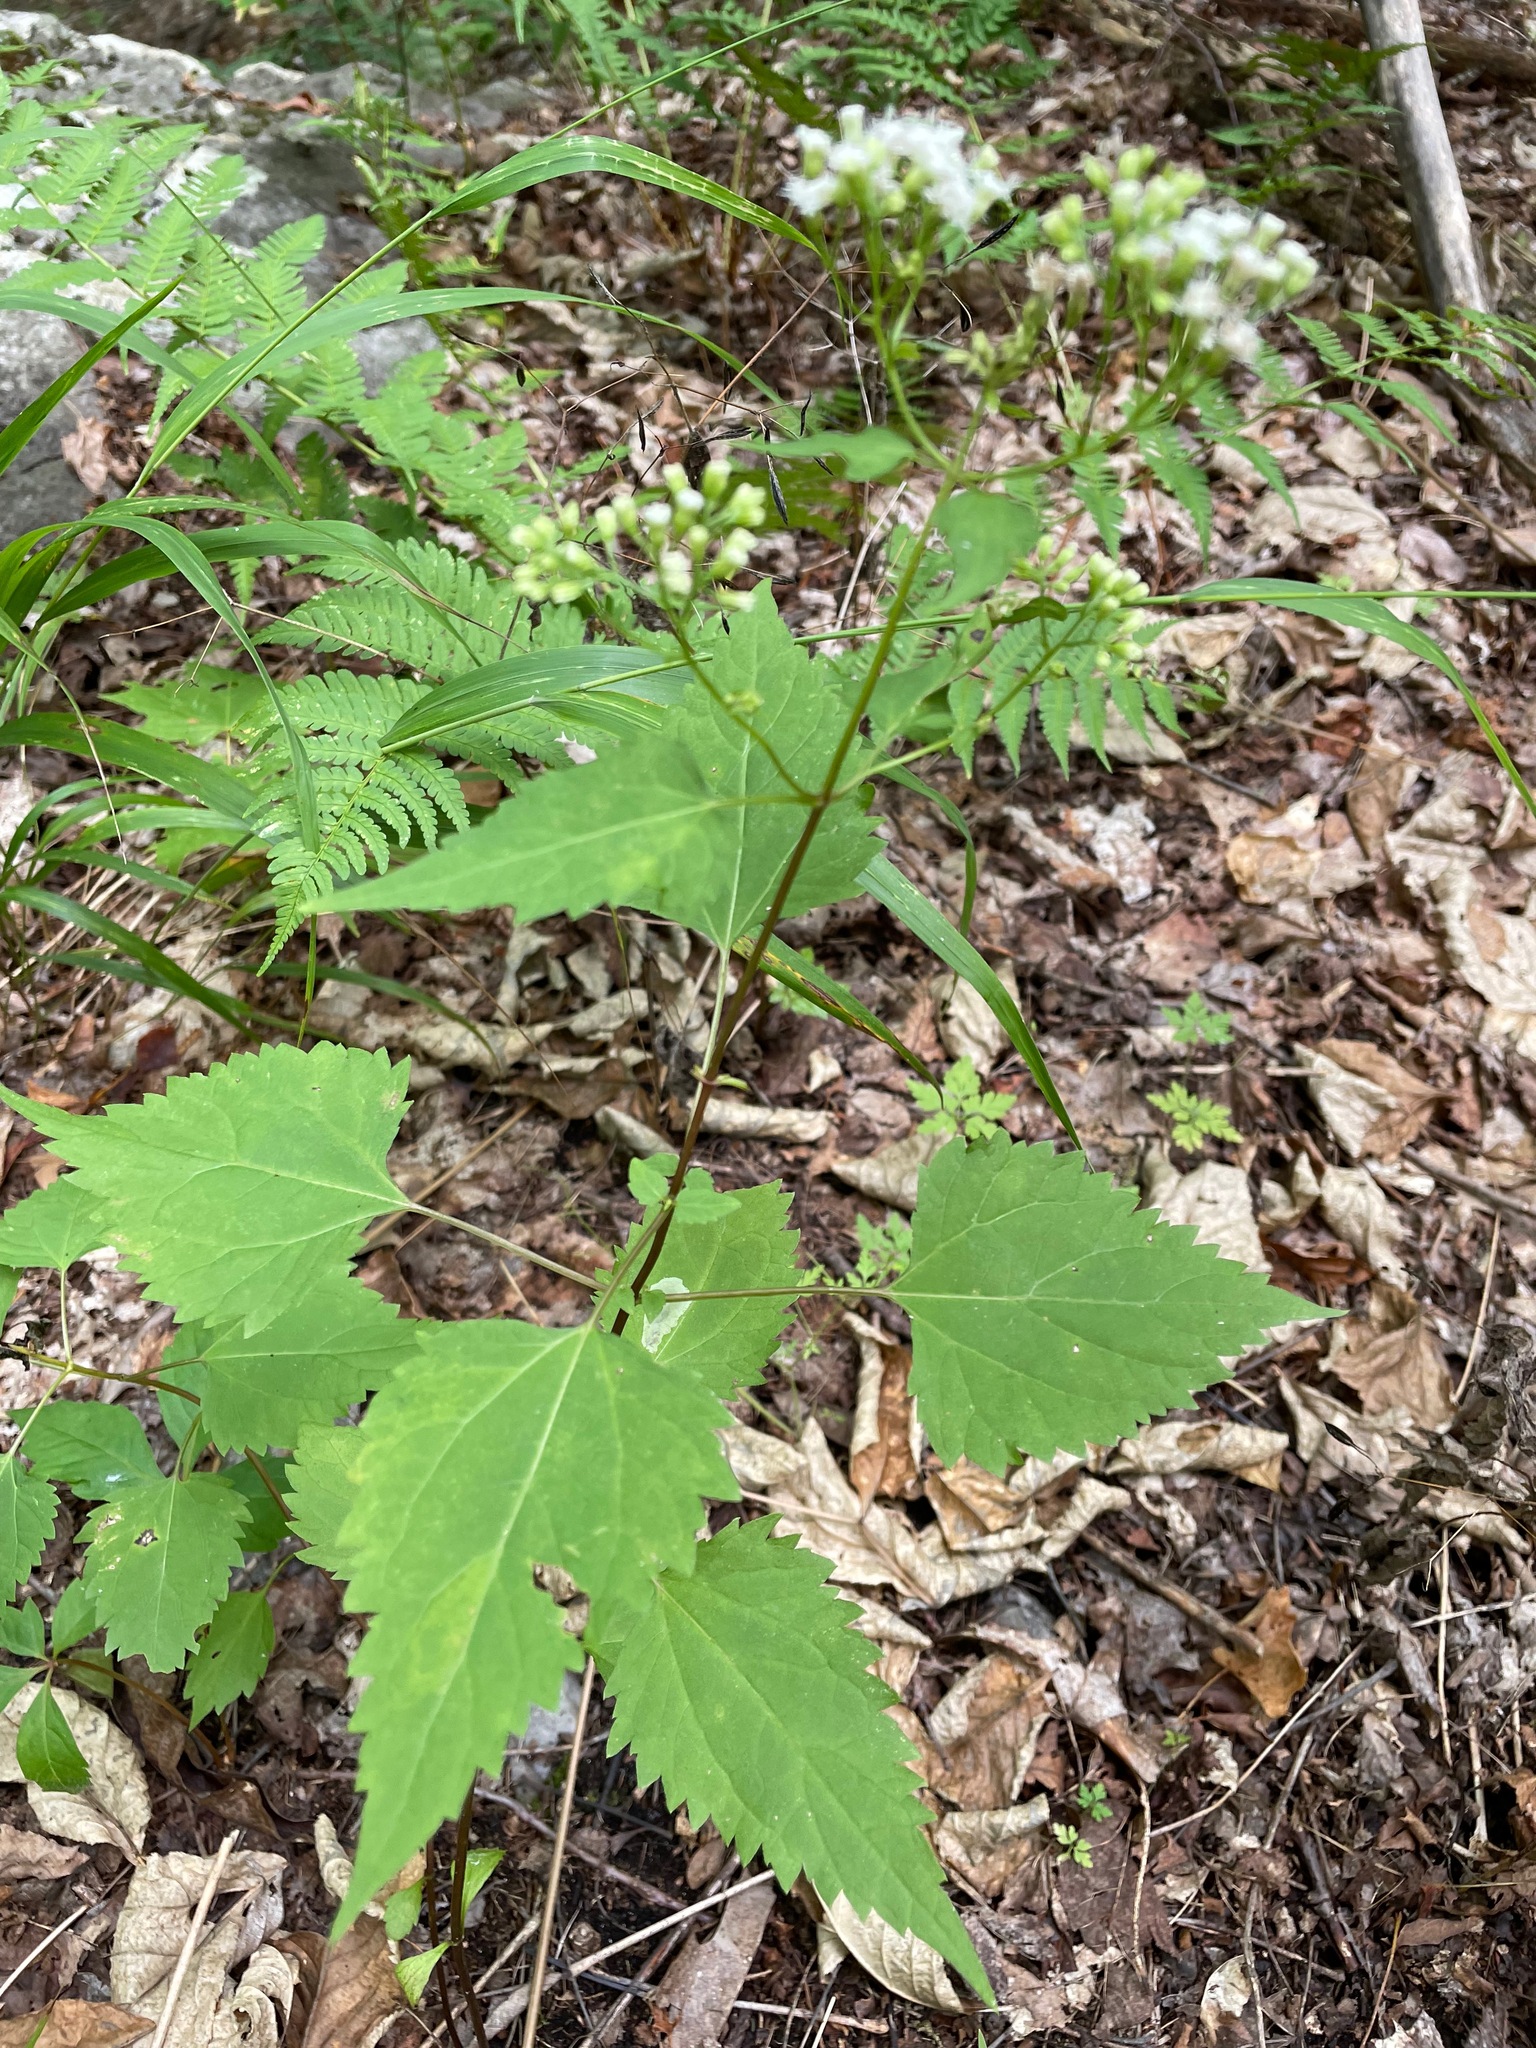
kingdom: Plantae
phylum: Tracheophyta
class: Magnoliopsida
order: Asterales
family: Asteraceae
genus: Ageratina
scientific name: Ageratina altissima
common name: White snakeroot
